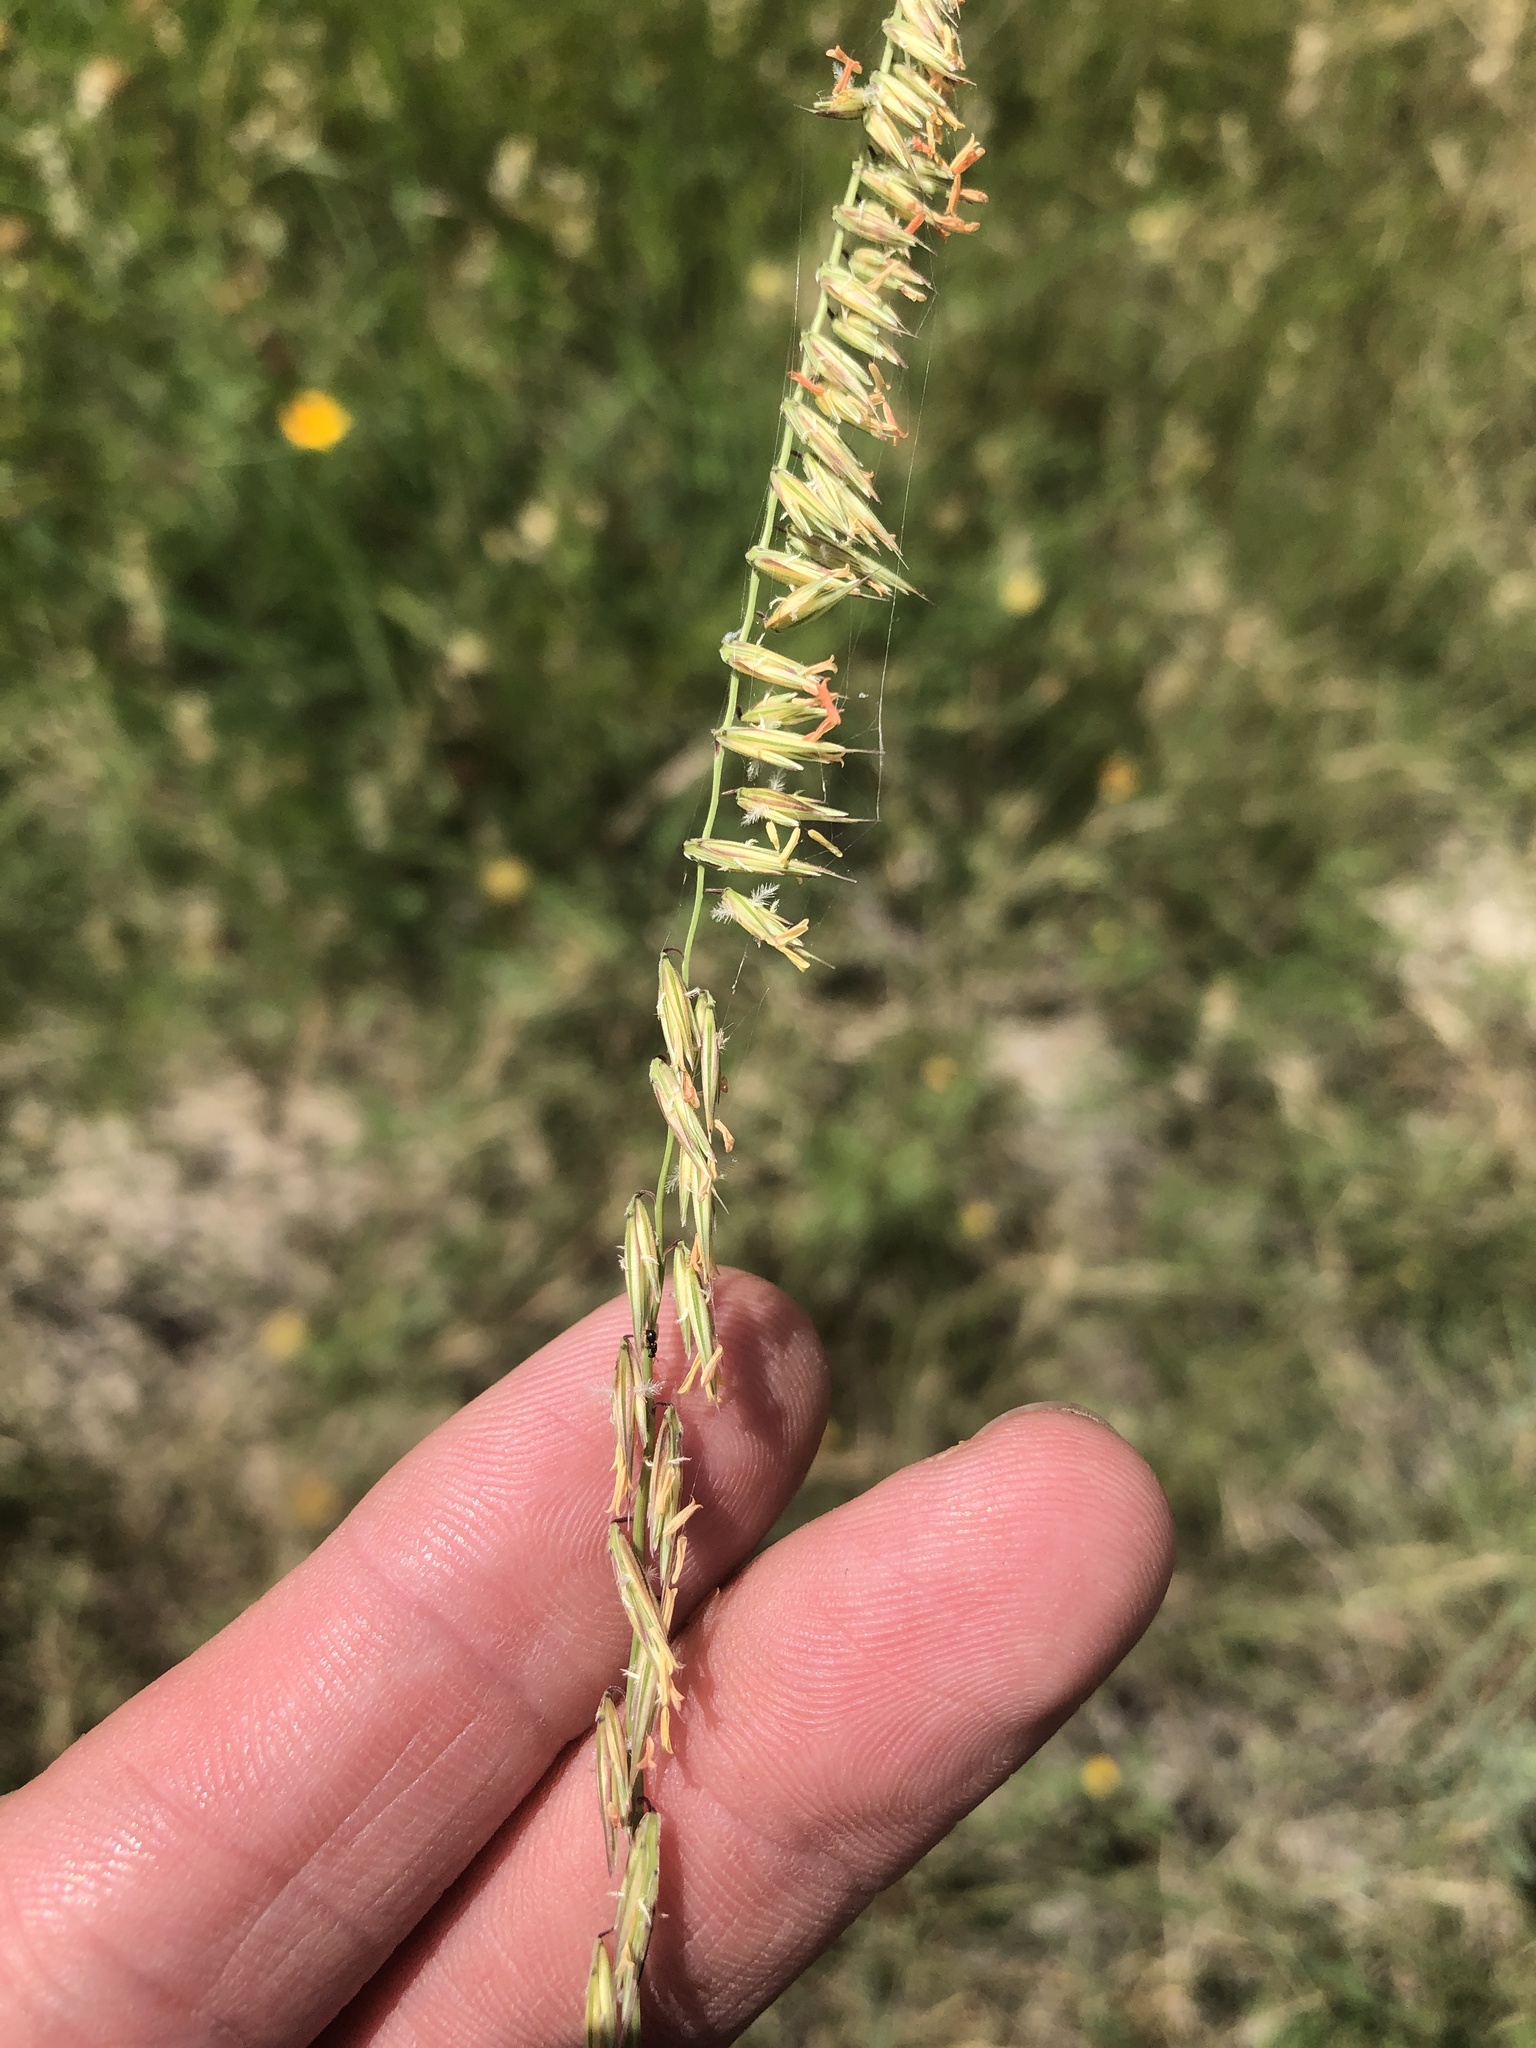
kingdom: Plantae
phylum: Tracheophyta
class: Liliopsida
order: Poales
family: Poaceae
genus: Bouteloua
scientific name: Bouteloua curtipendula
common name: Side-oats grama
